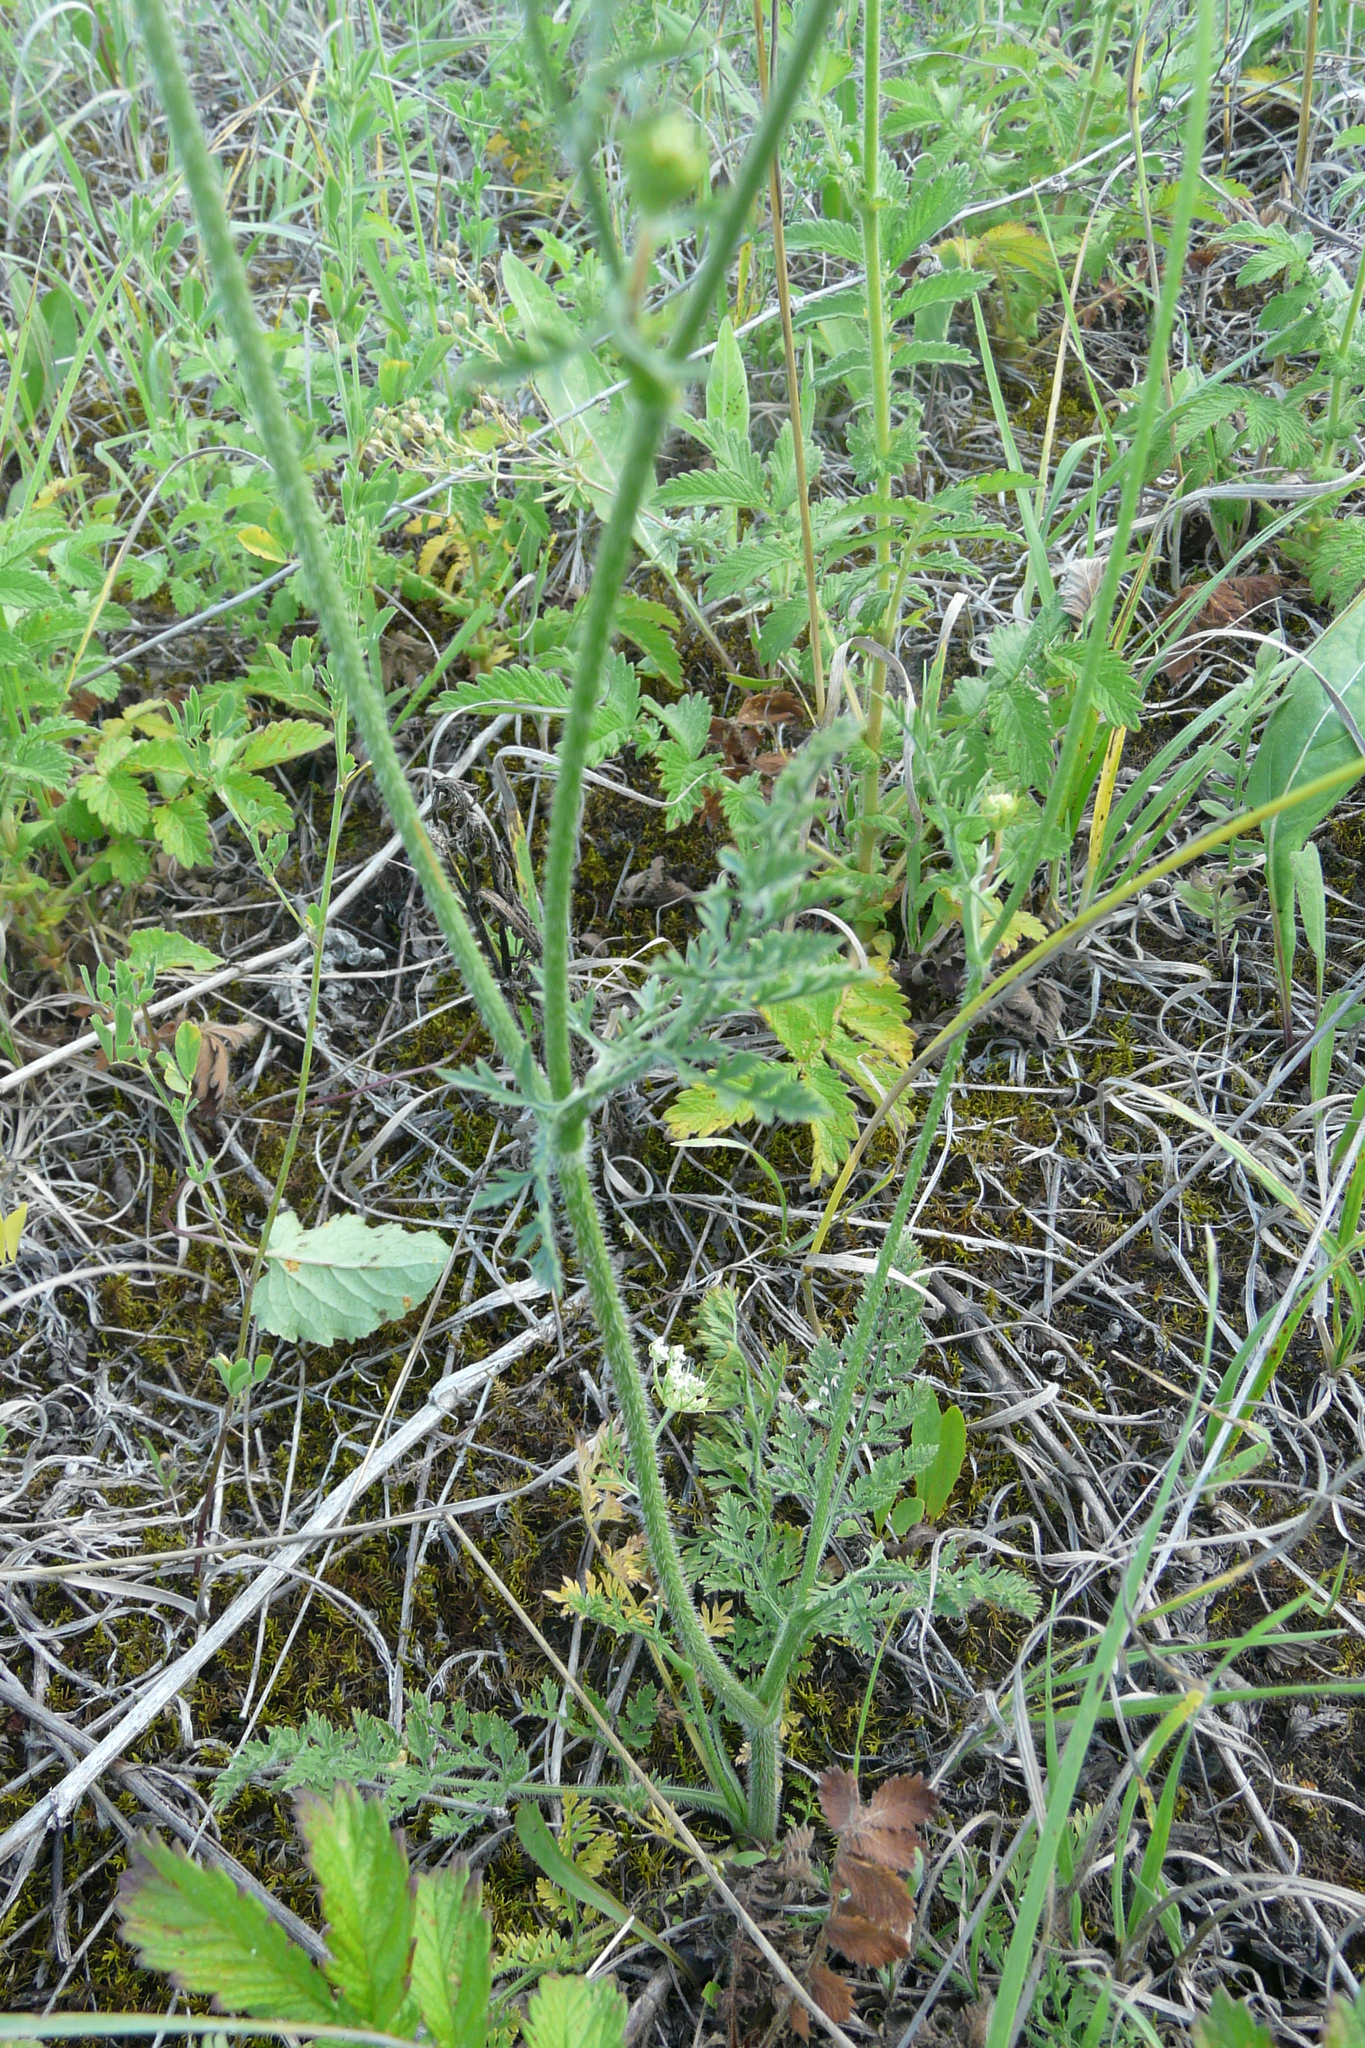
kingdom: Plantae
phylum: Tracheophyta
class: Magnoliopsida
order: Apiales
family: Apiaceae
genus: Daucus
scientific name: Daucus carota
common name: Wild carrot
